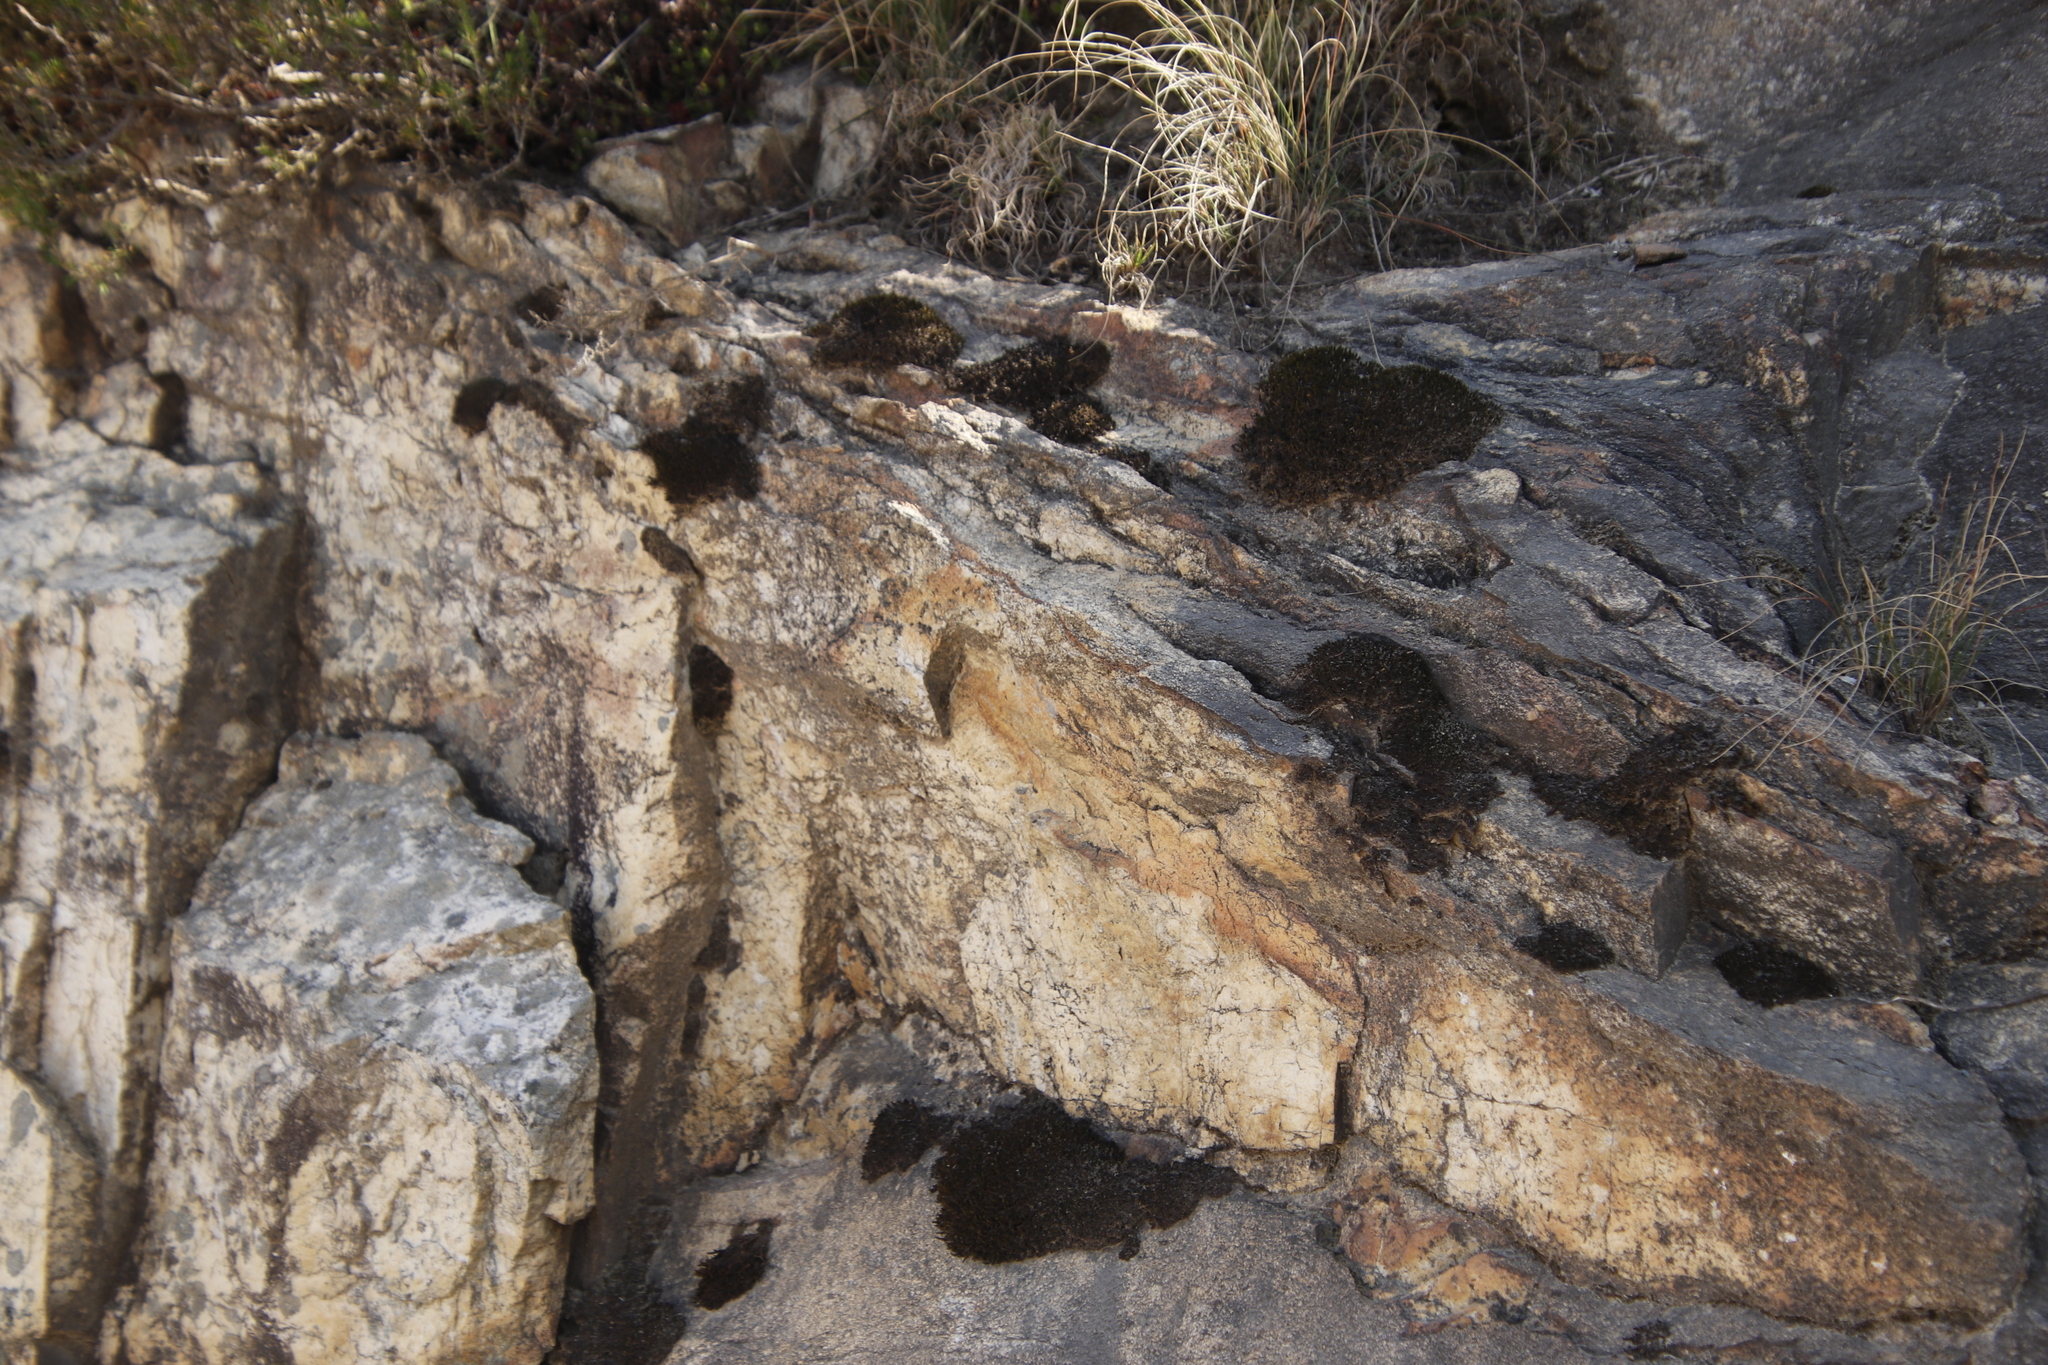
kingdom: Plantae
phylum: Bryophyta
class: Bryopsida
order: Grimmiales
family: Grimmiaceae
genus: Bucklandiella
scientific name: Bucklandiella crispula
